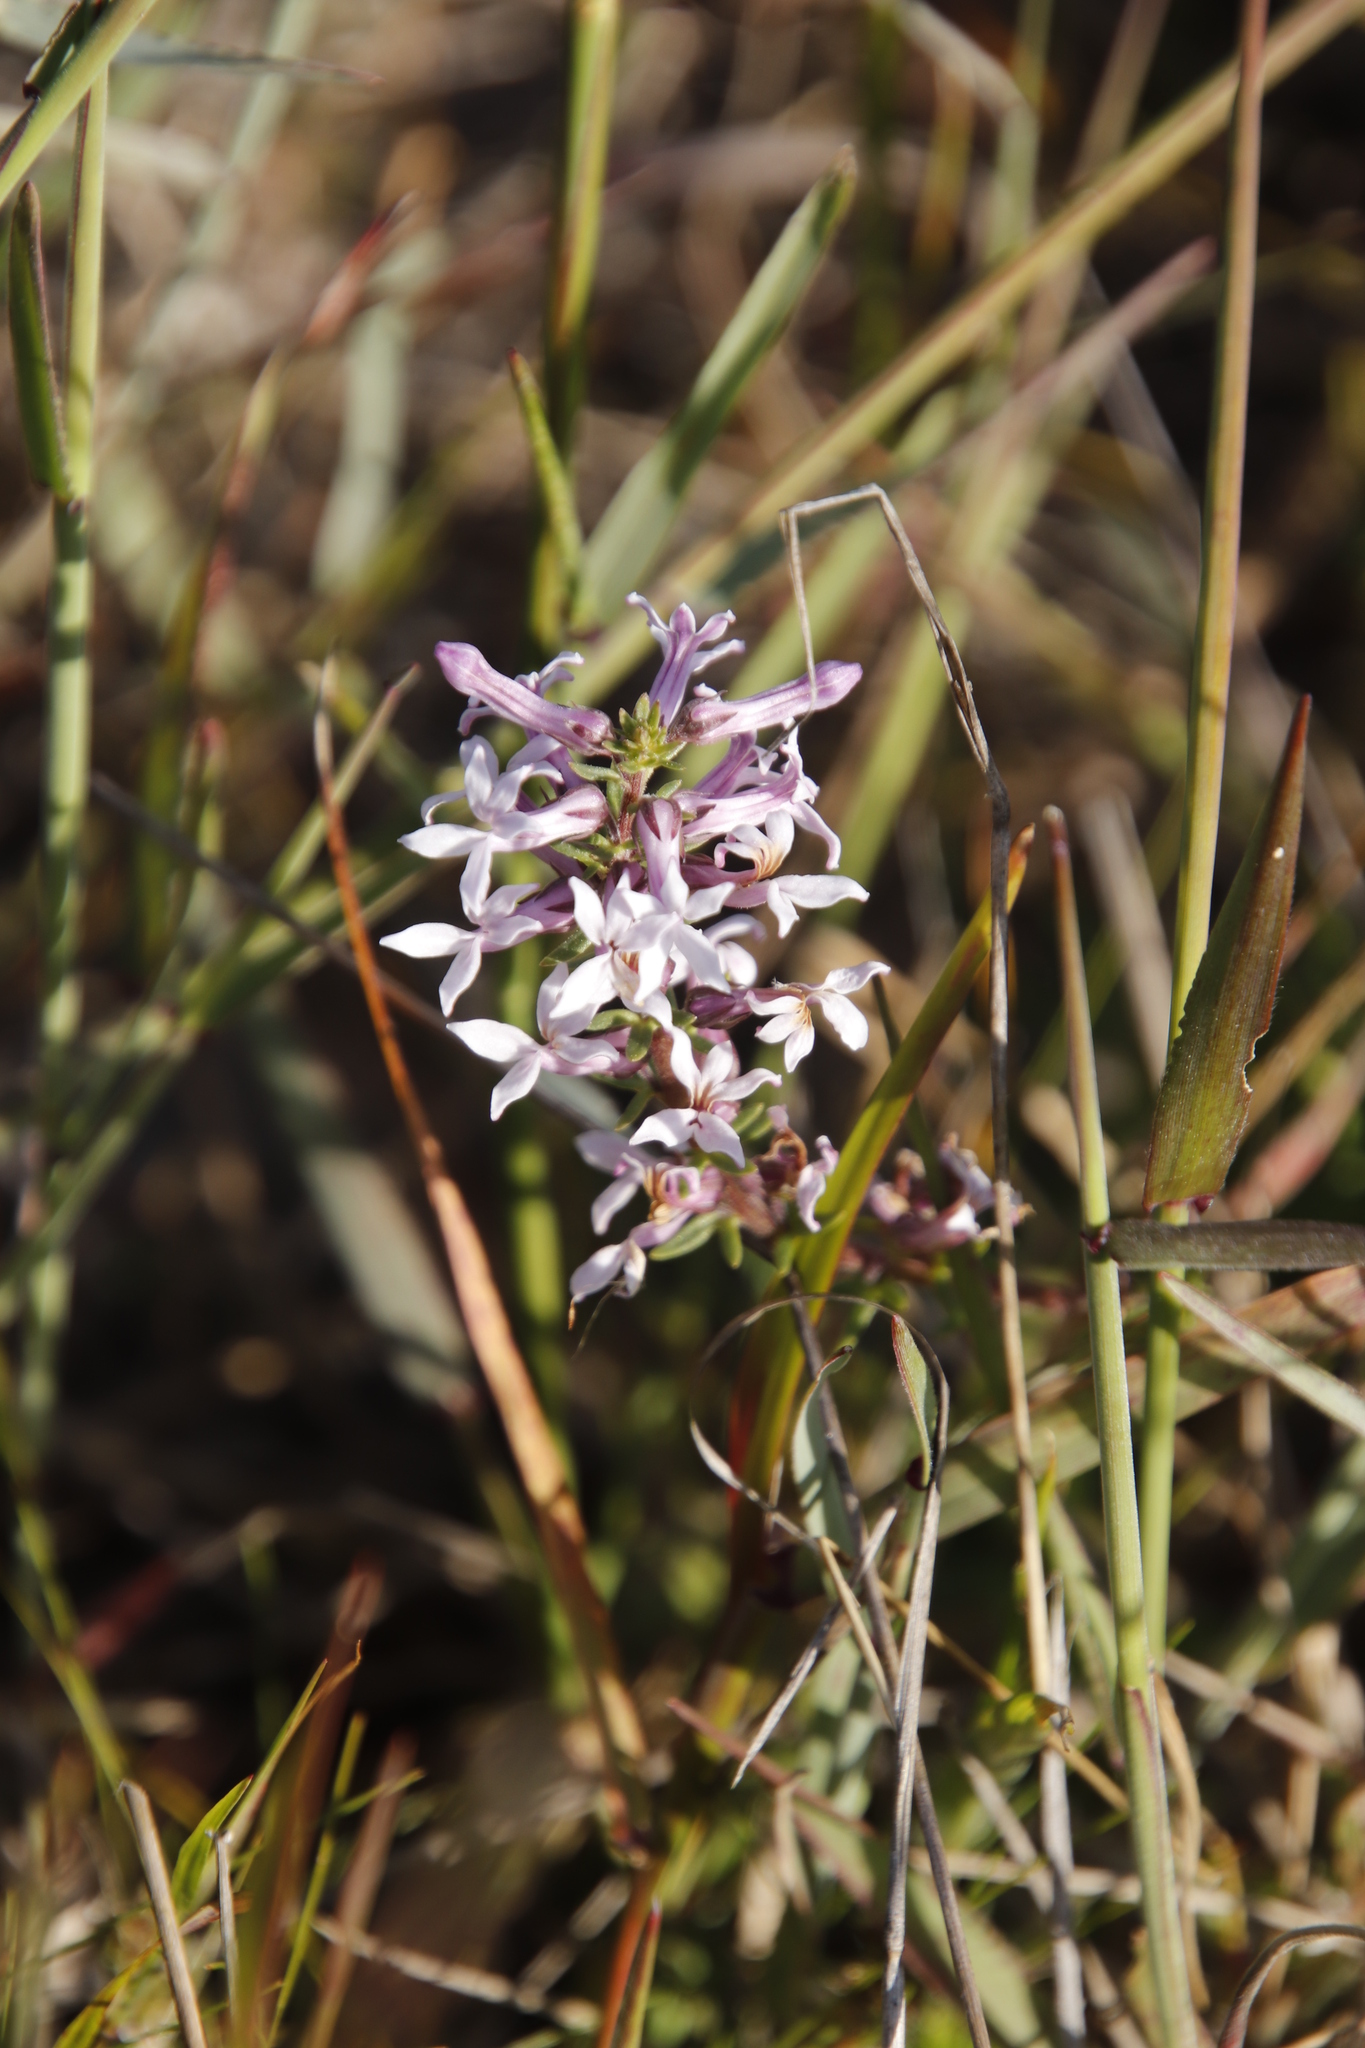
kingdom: Plantae
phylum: Tracheophyta
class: Magnoliopsida
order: Asterales
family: Campanulaceae
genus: Cyphia
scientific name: Cyphia bulbosa
